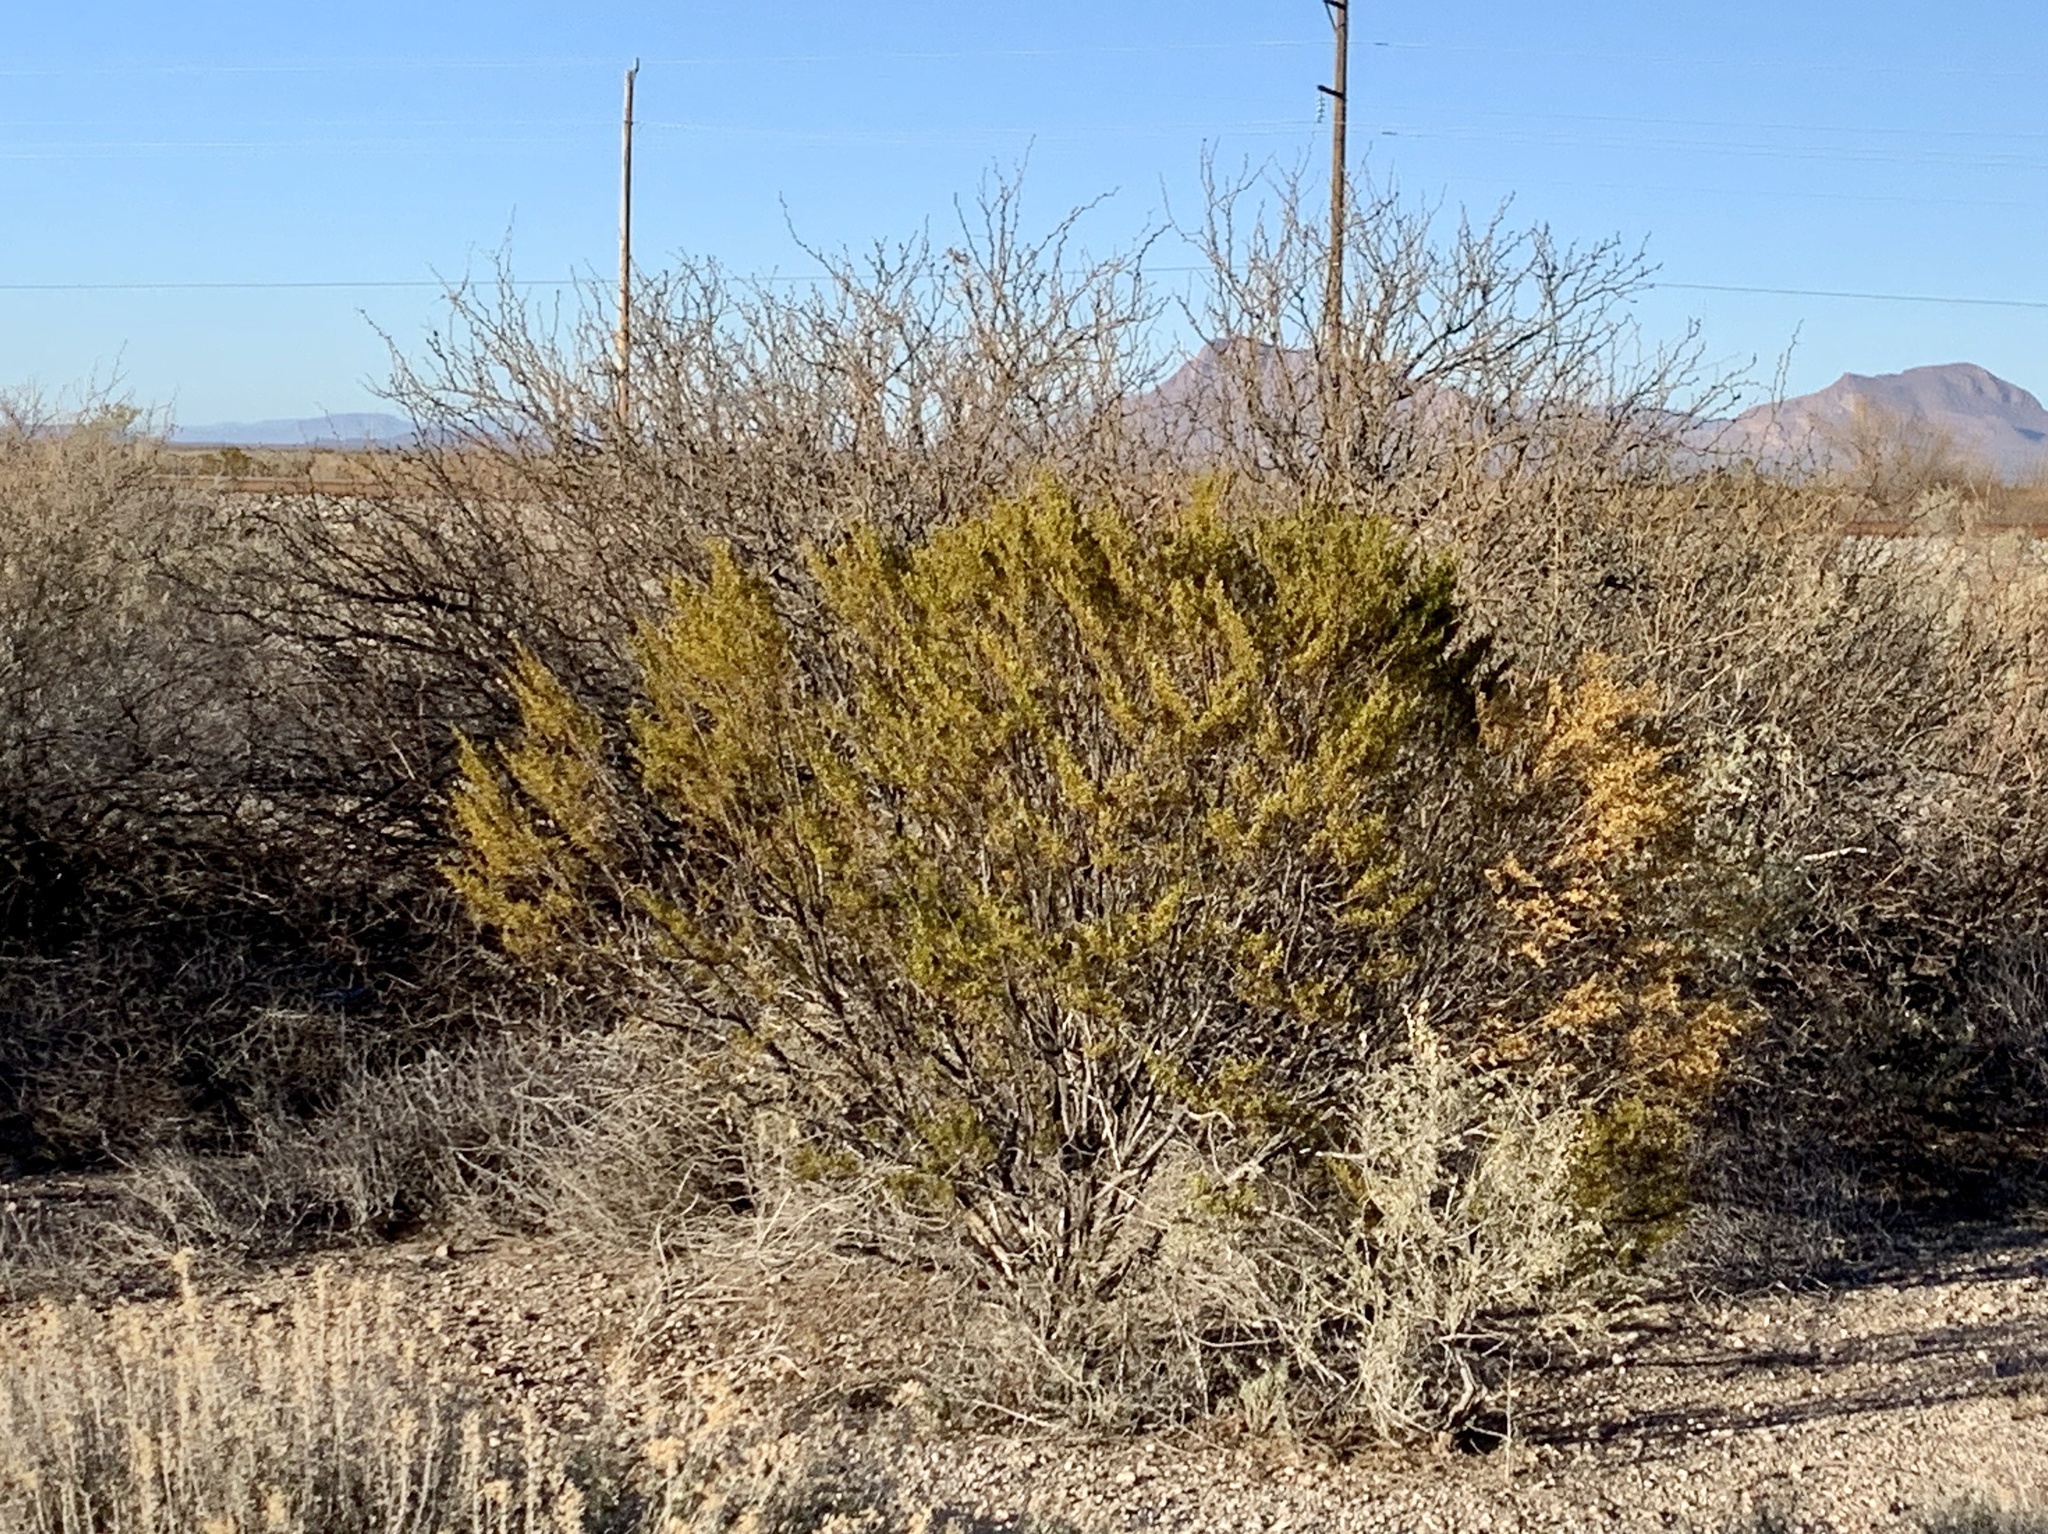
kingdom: Plantae
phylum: Tracheophyta
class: Magnoliopsida
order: Zygophyllales
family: Zygophyllaceae
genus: Larrea
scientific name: Larrea tridentata
